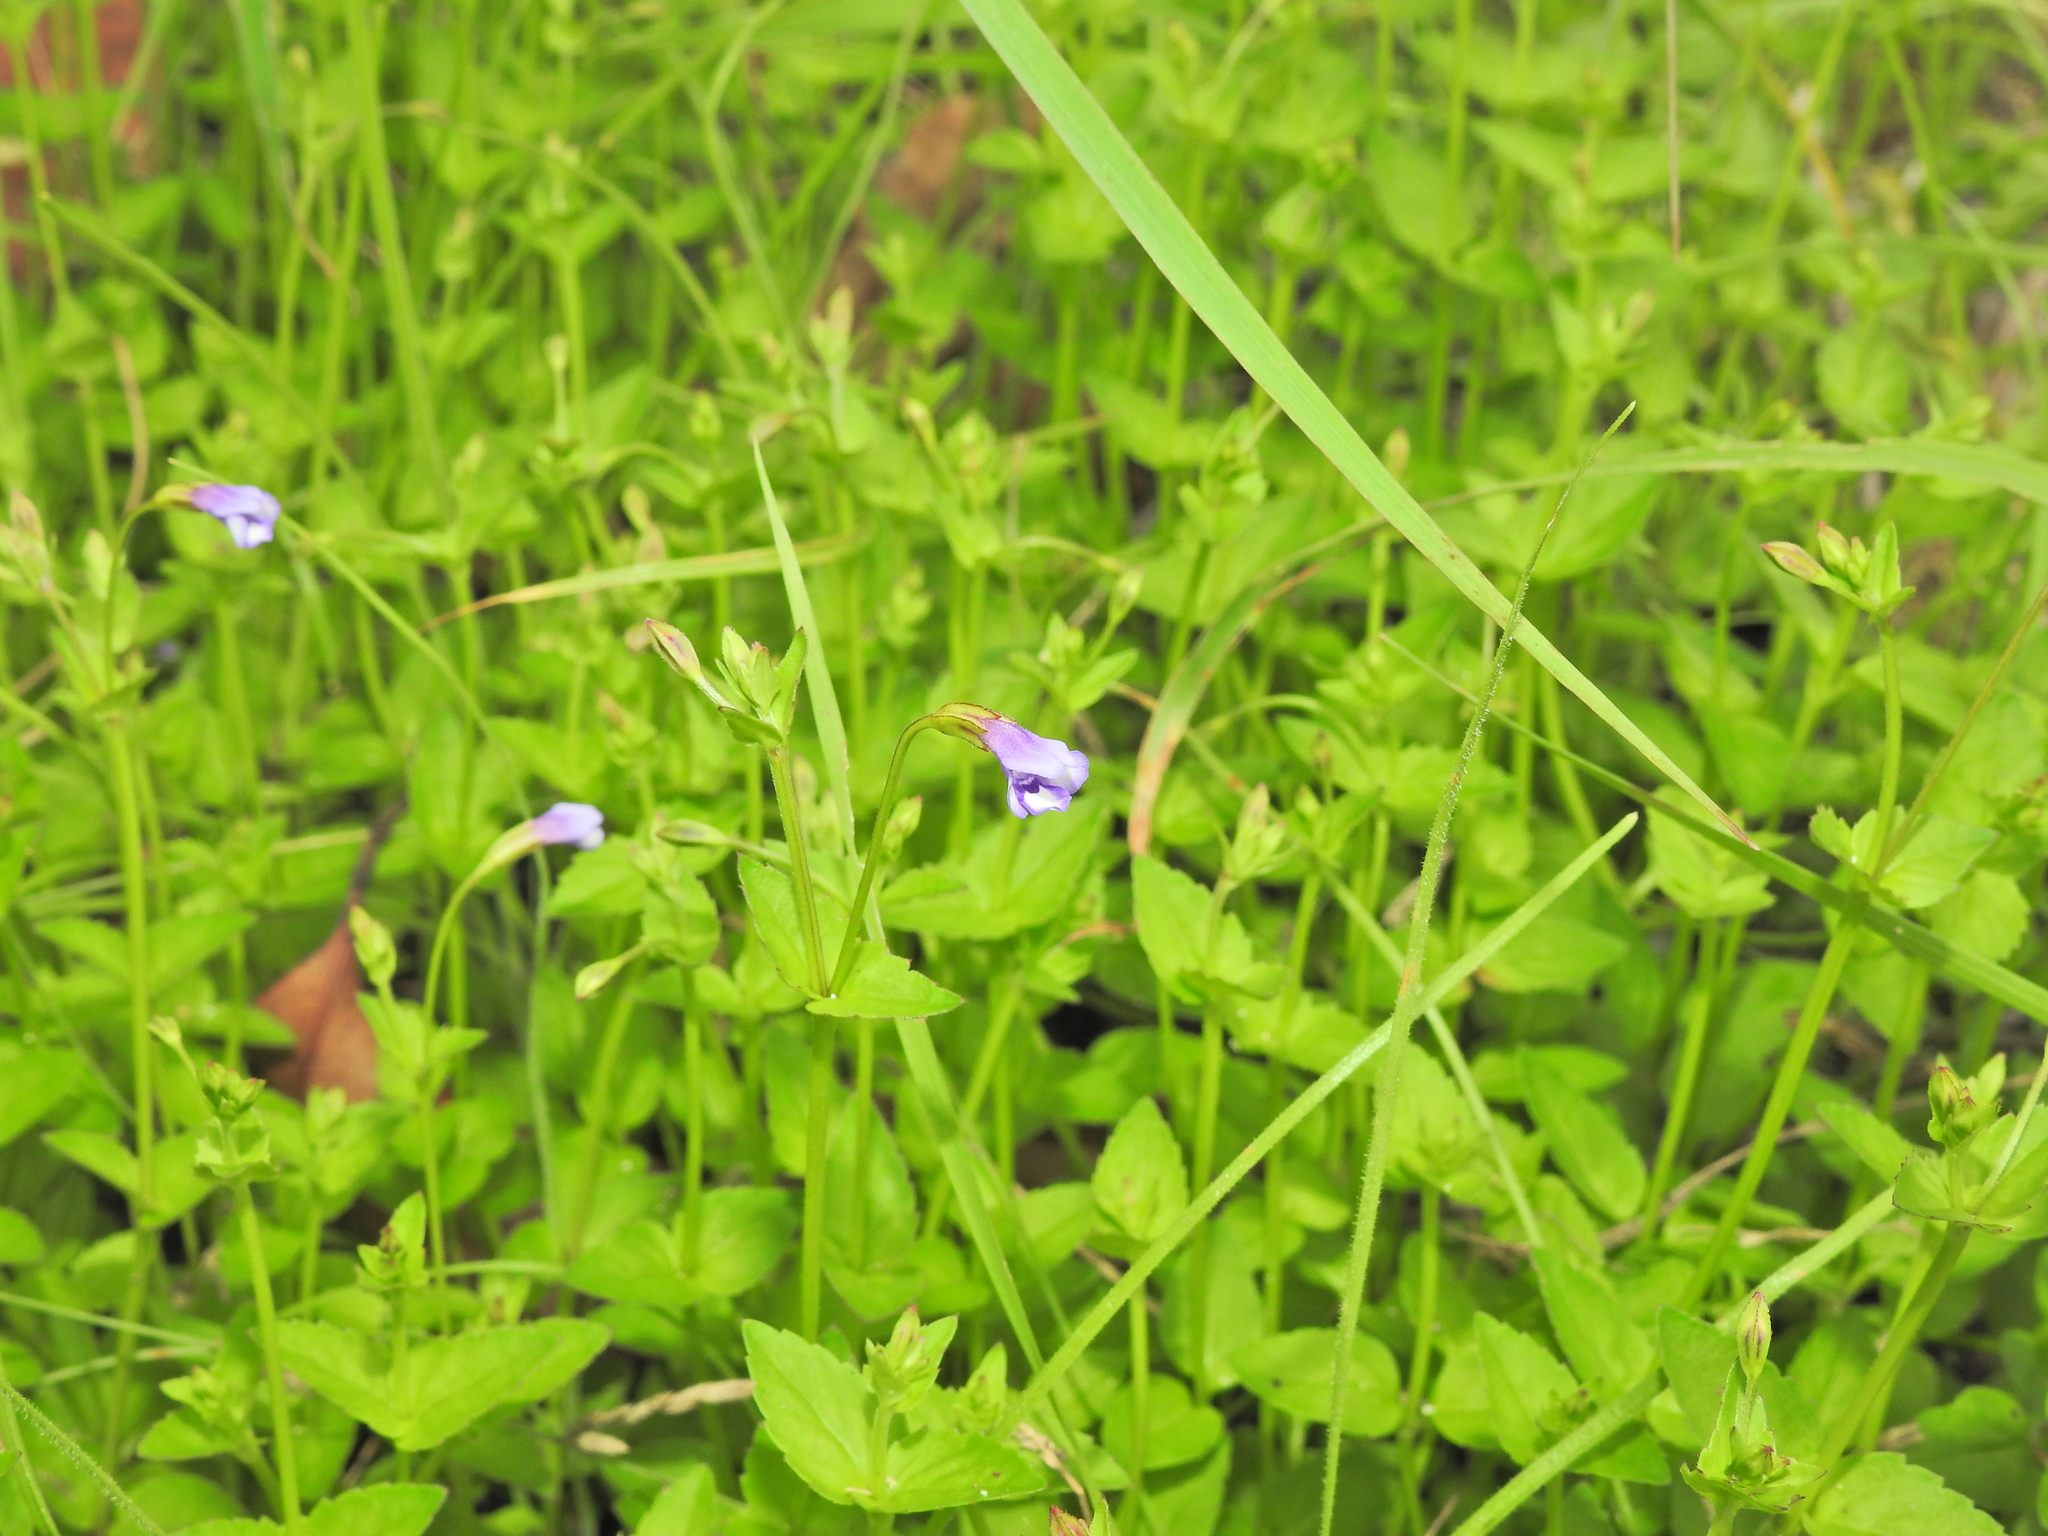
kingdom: Plantae
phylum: Tracheophyta
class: Magnoliopsida
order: Lamiales
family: Linderniaceae
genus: Torenia
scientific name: Torenia crustacea
